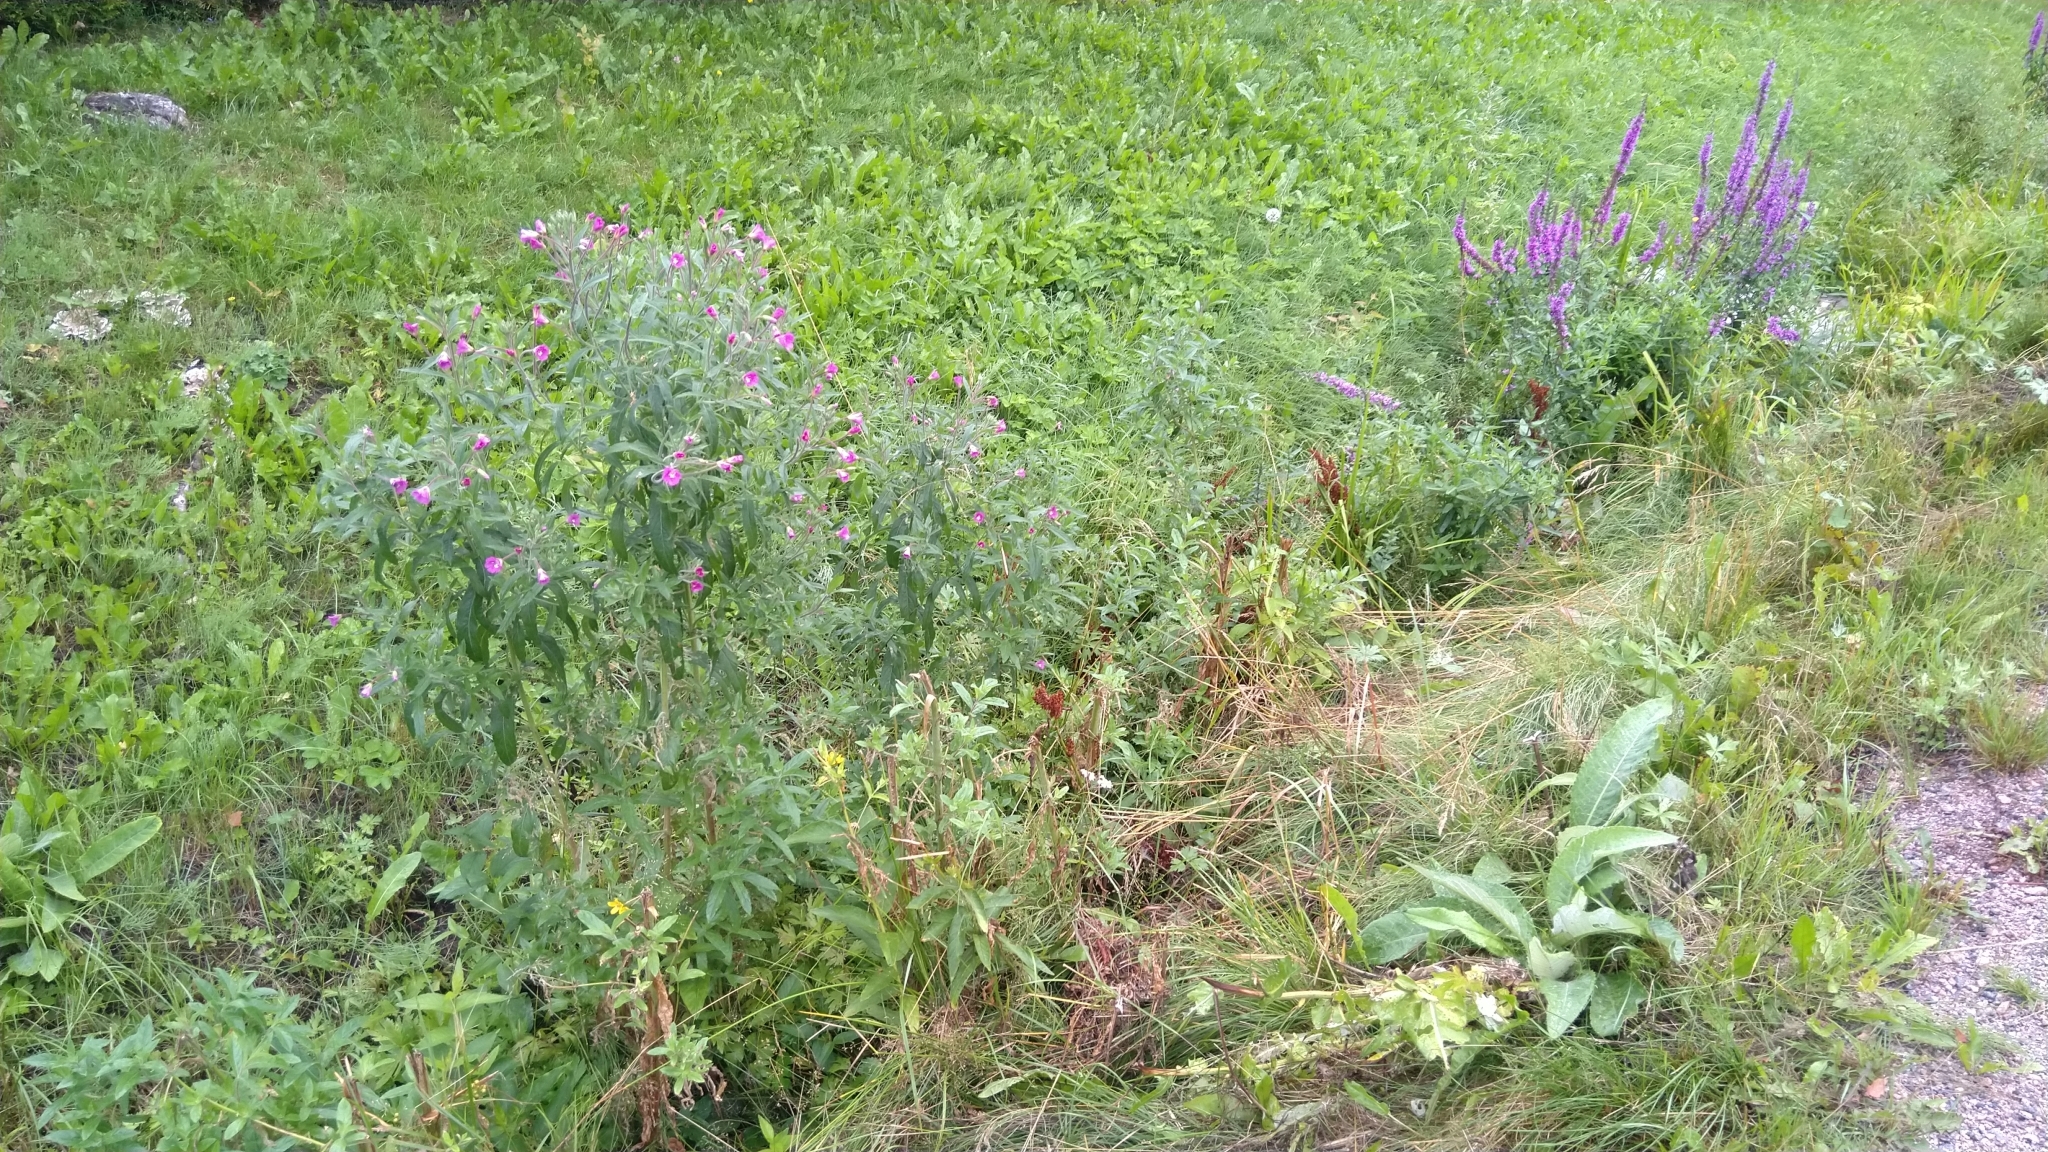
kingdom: Plantae
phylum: Tracheophyta
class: Magnoliopsida
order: Myrtales
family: Onagraceae
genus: Epilobium
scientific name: Epilobium hirsutum
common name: Great willowherb
